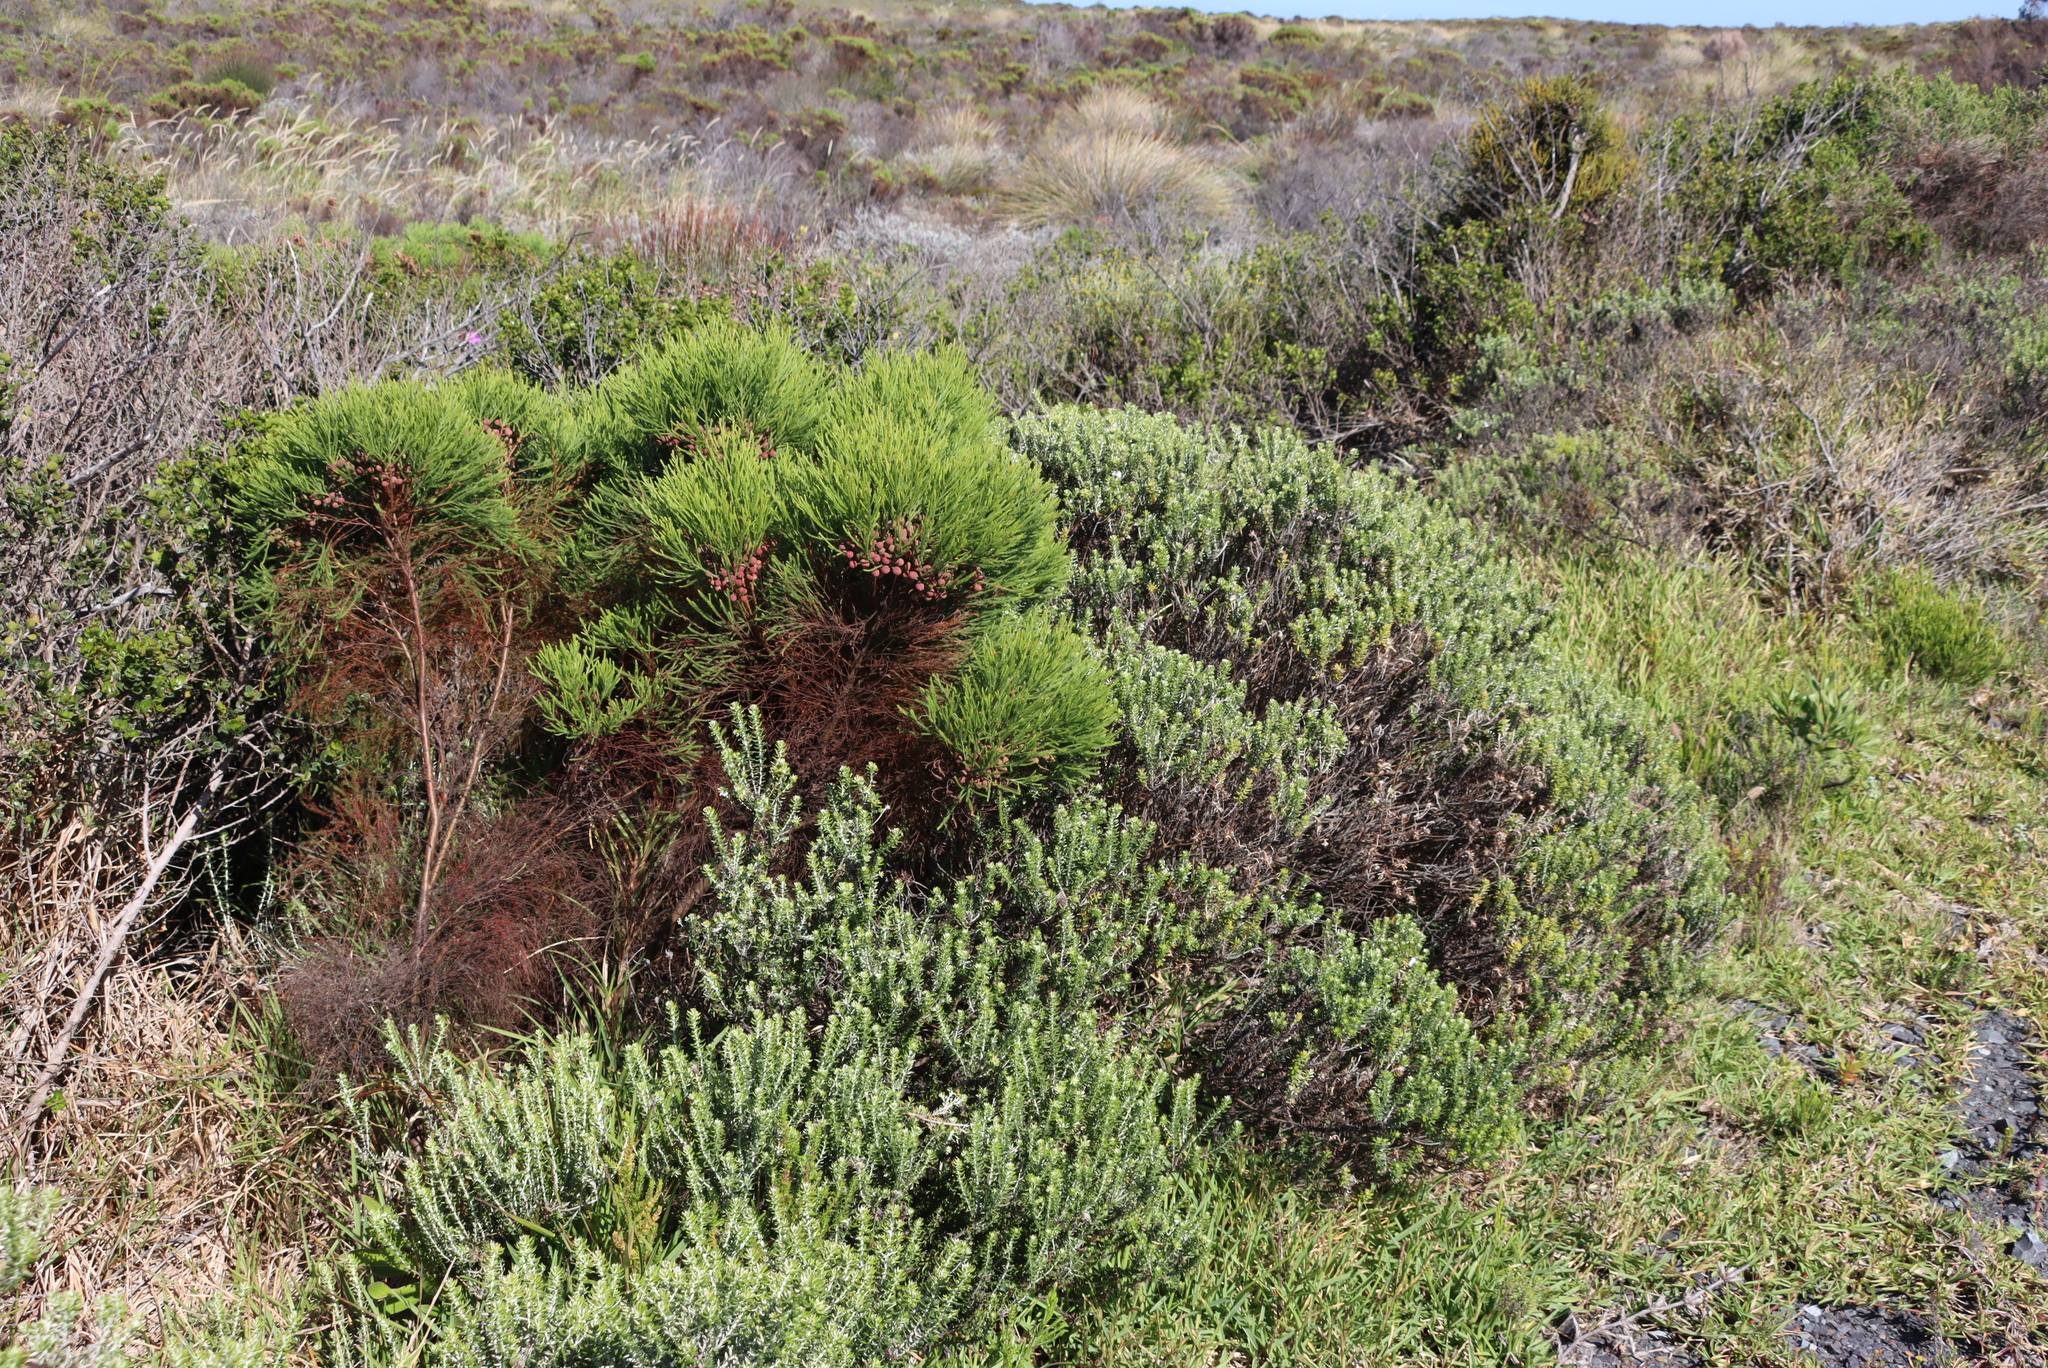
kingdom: Plantae
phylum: Tracheophyta
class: Magnoliopsida
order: Bruniales
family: Bruniaceae
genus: Berzelia
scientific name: Berzelia lanuginosa
